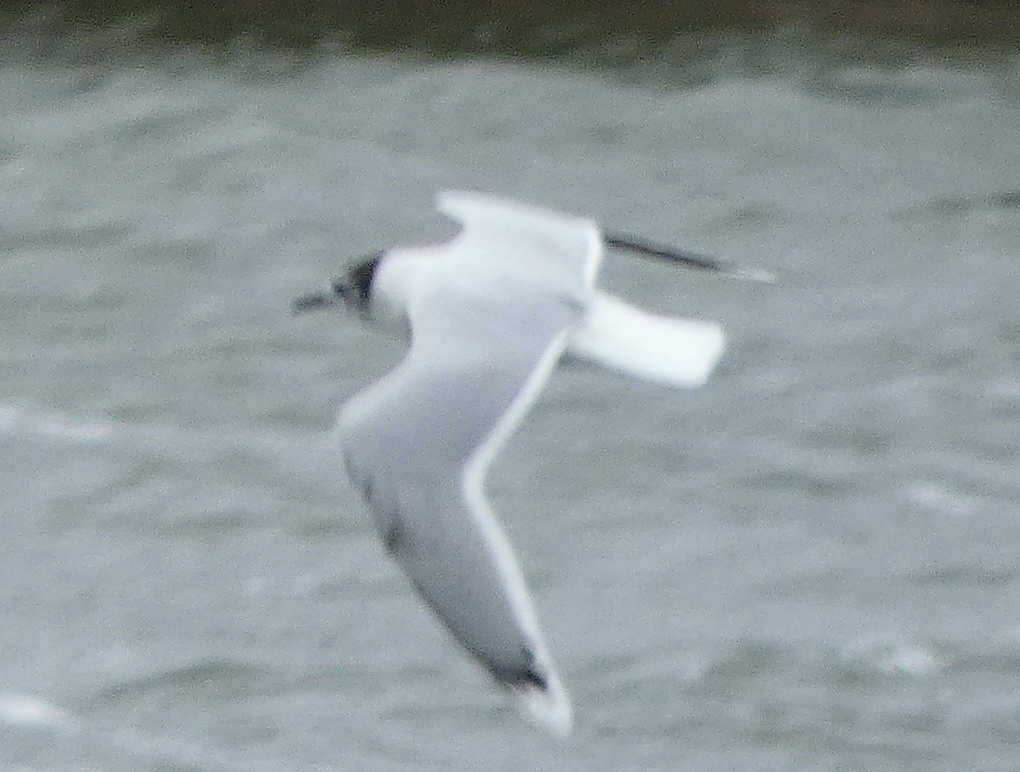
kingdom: Animalia
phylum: Chordata
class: Aves
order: Charadriiformes
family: Laridae
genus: Hydrocoloeus
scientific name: Hydrocoloeus minutus
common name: Little gull
